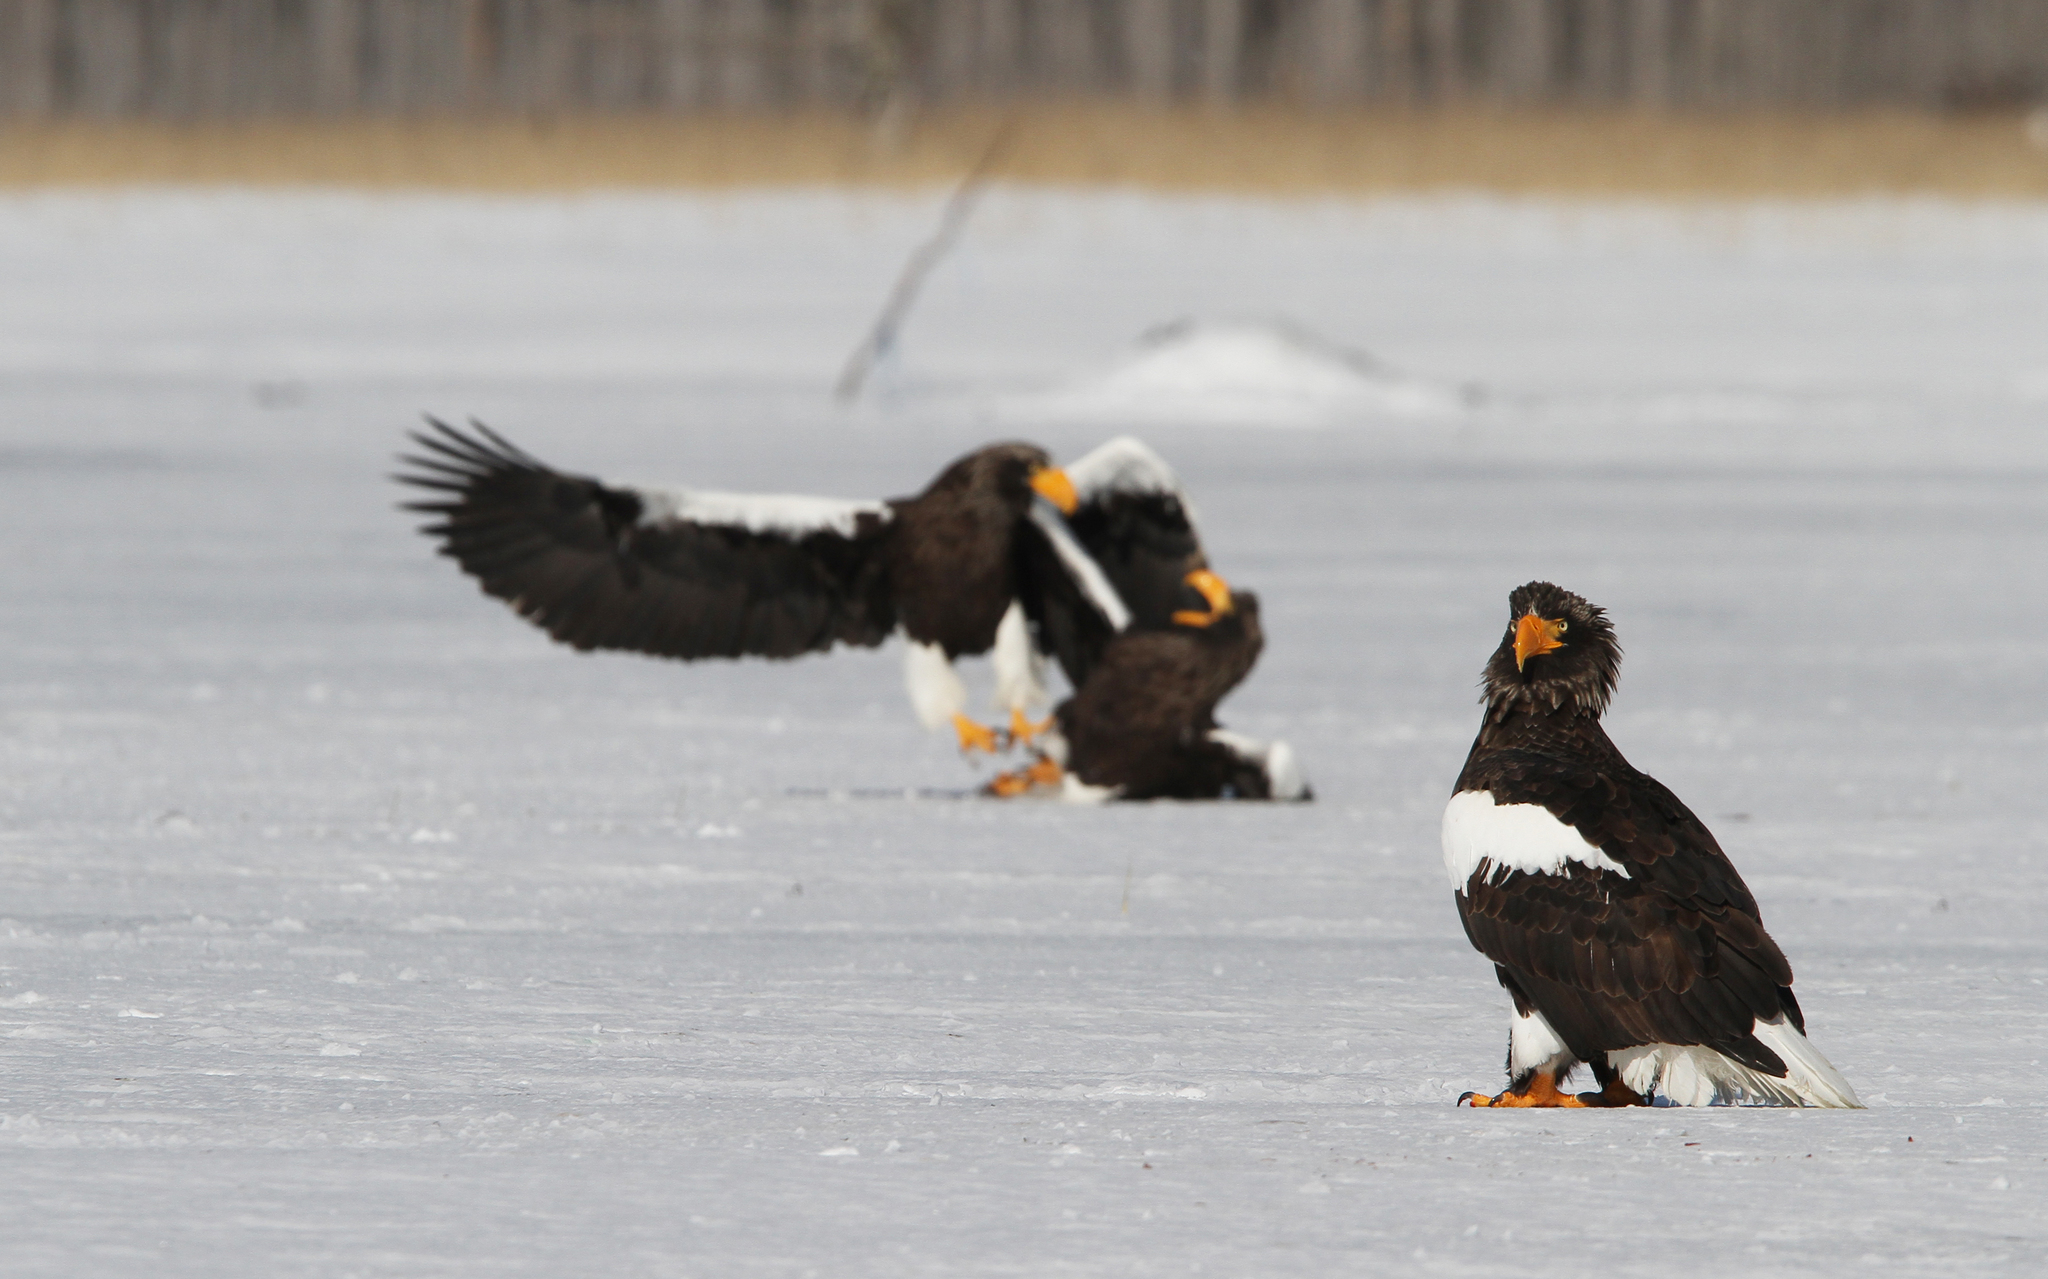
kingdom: Animalia
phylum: Chordata
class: Aves
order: Accipitriformes
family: Accipitridae
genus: Haliaeetus
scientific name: Haliaeetus pelagicus
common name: Steller's sea eagle
